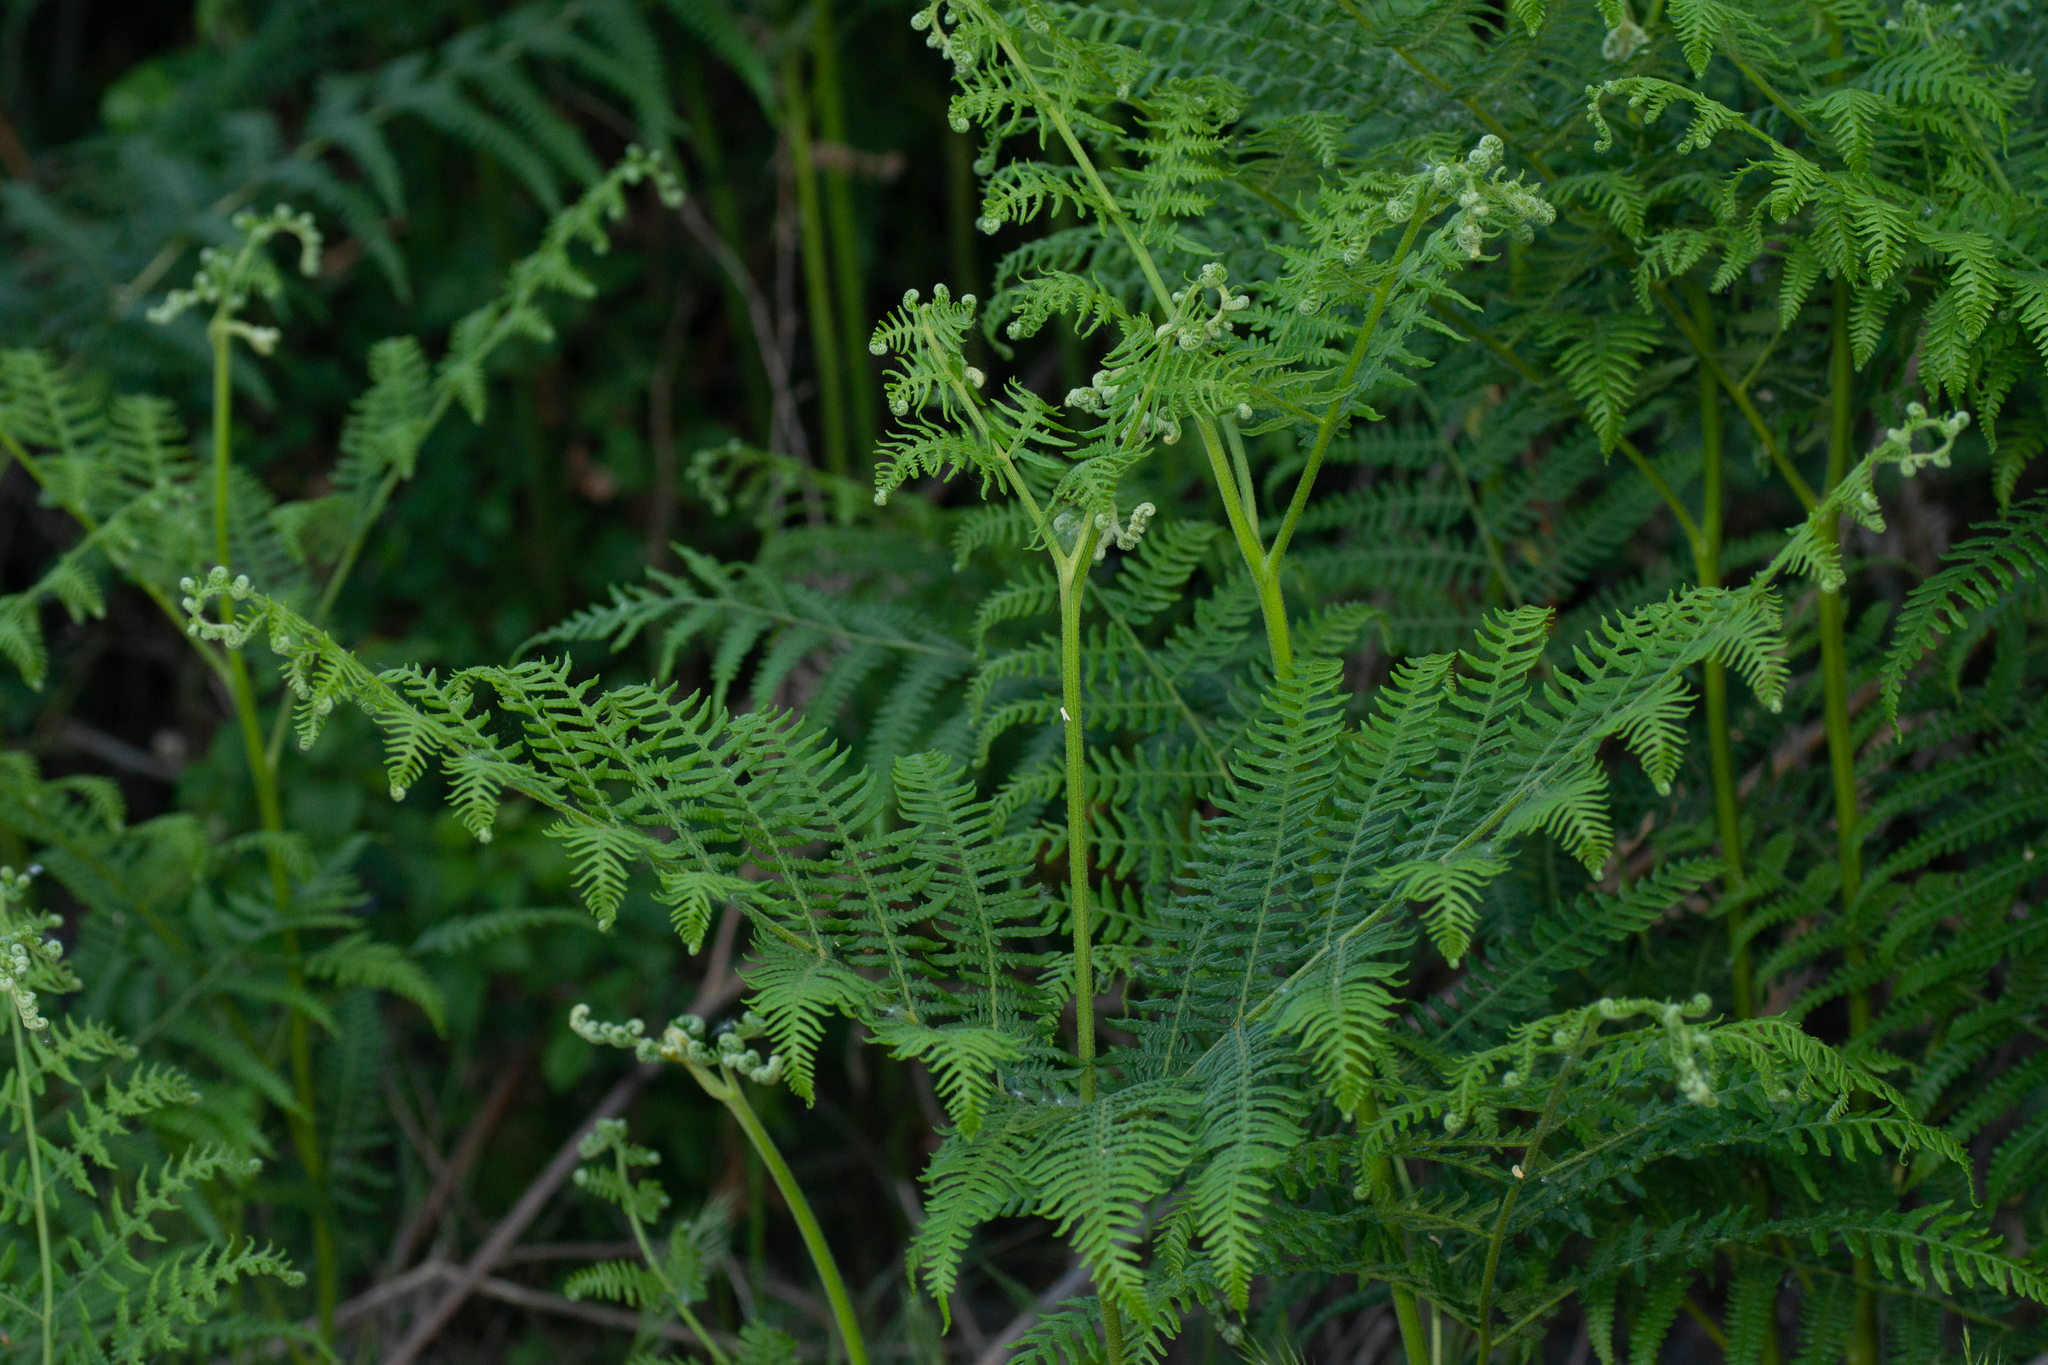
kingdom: Plantae
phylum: Tracheophyta
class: Polypodiopsida
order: Polypodiales
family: Dennstaedtiaceae
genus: Pteridium
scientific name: Pteridium aquilinum
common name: Bracken
